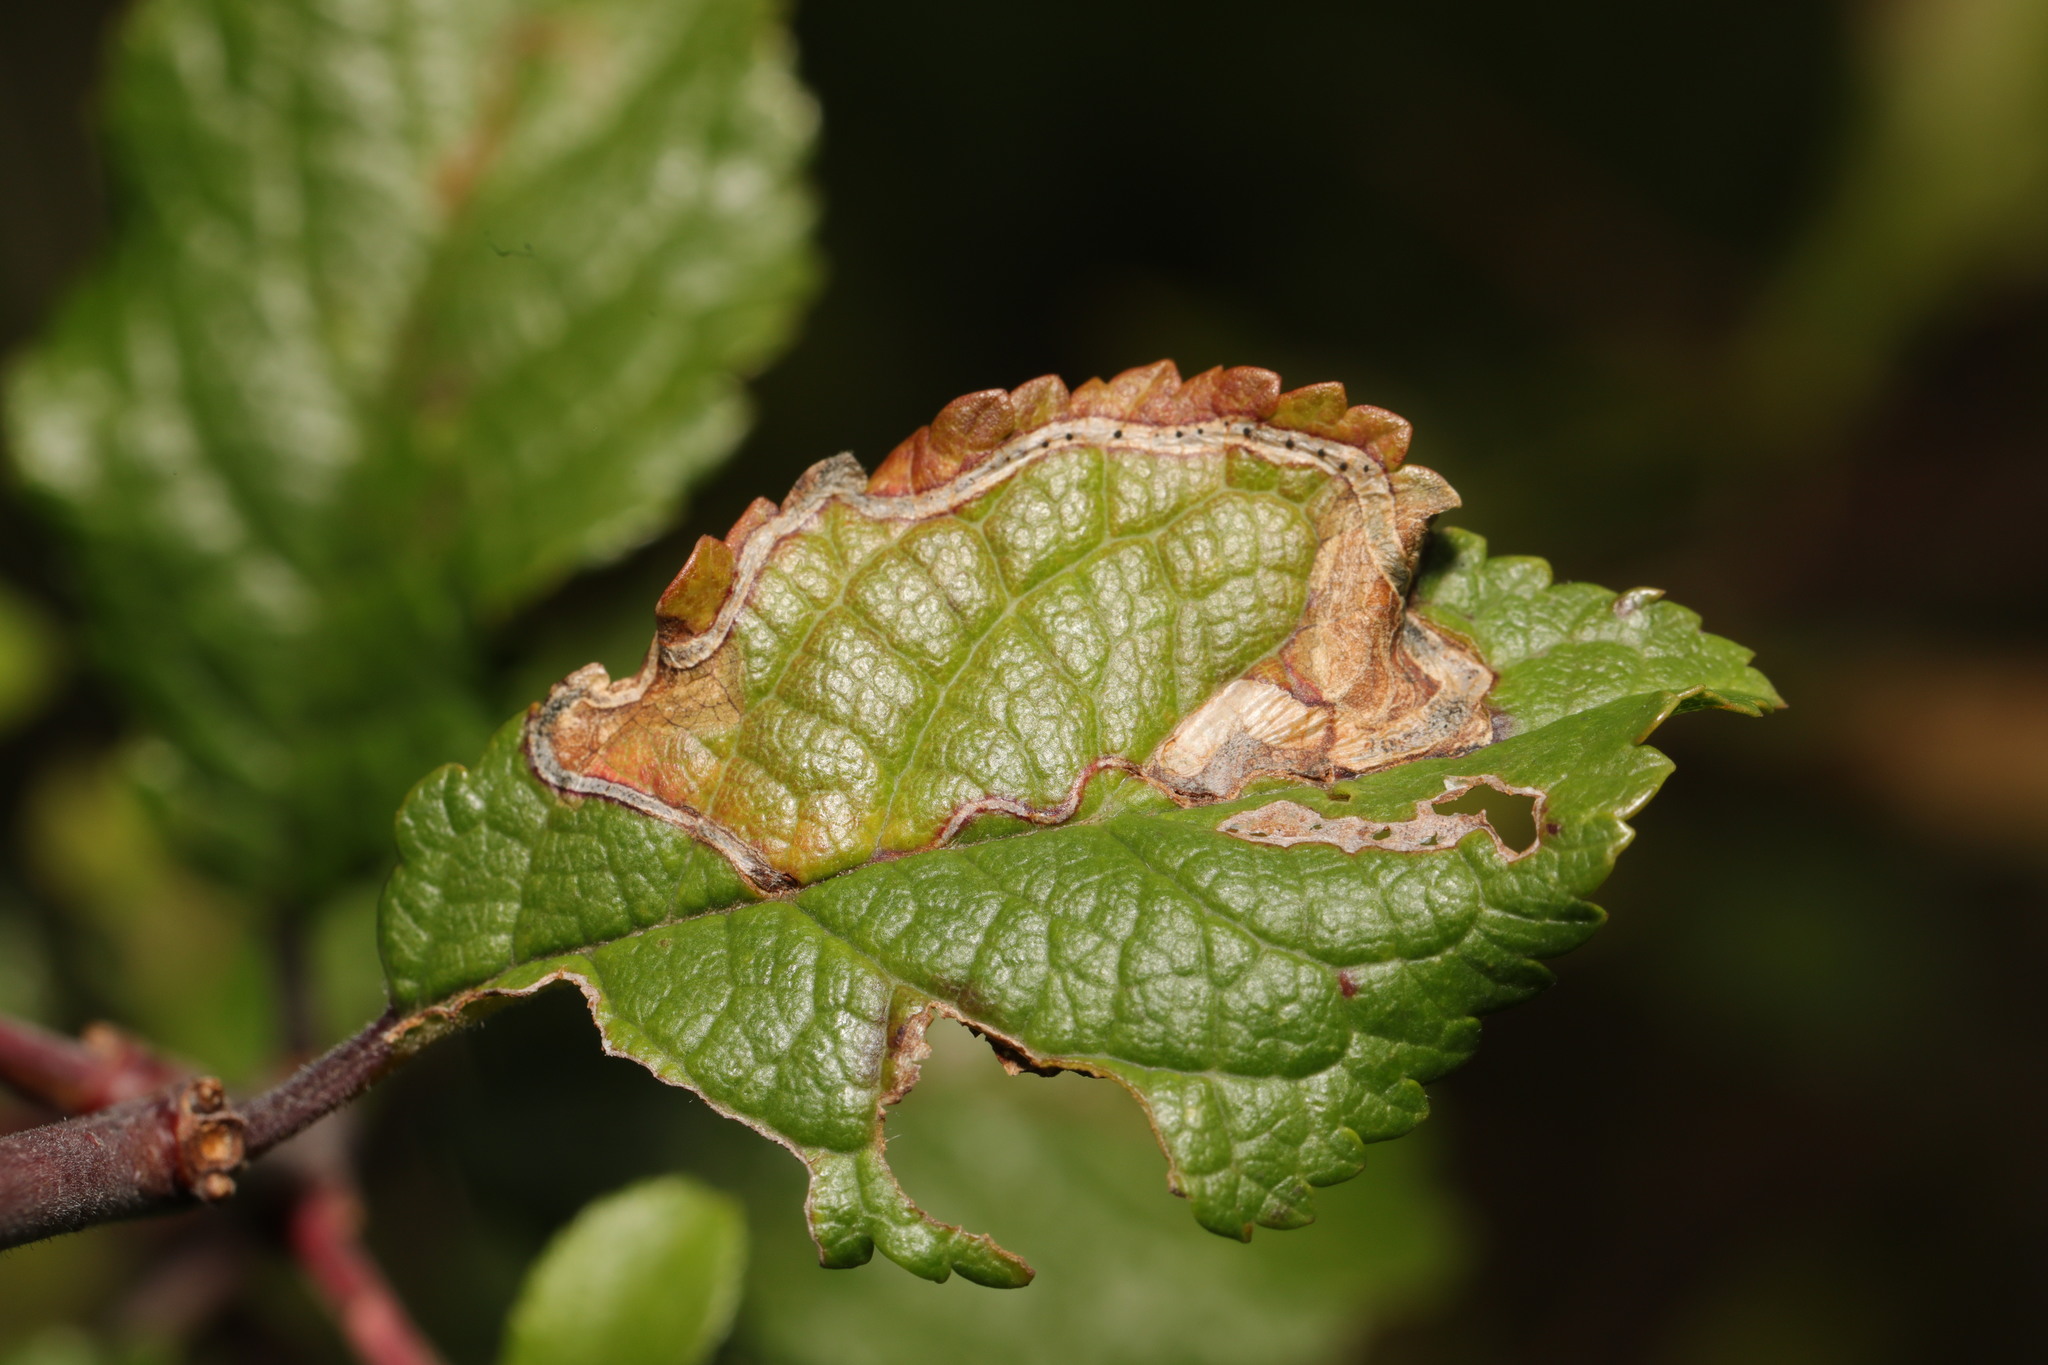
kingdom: Animalia
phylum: Arthropoda
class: Insecta
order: Lepidoptera
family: Lyonetiidae
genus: Lyonetia
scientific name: Lyonetia clerkella
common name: Apple leaf miner
